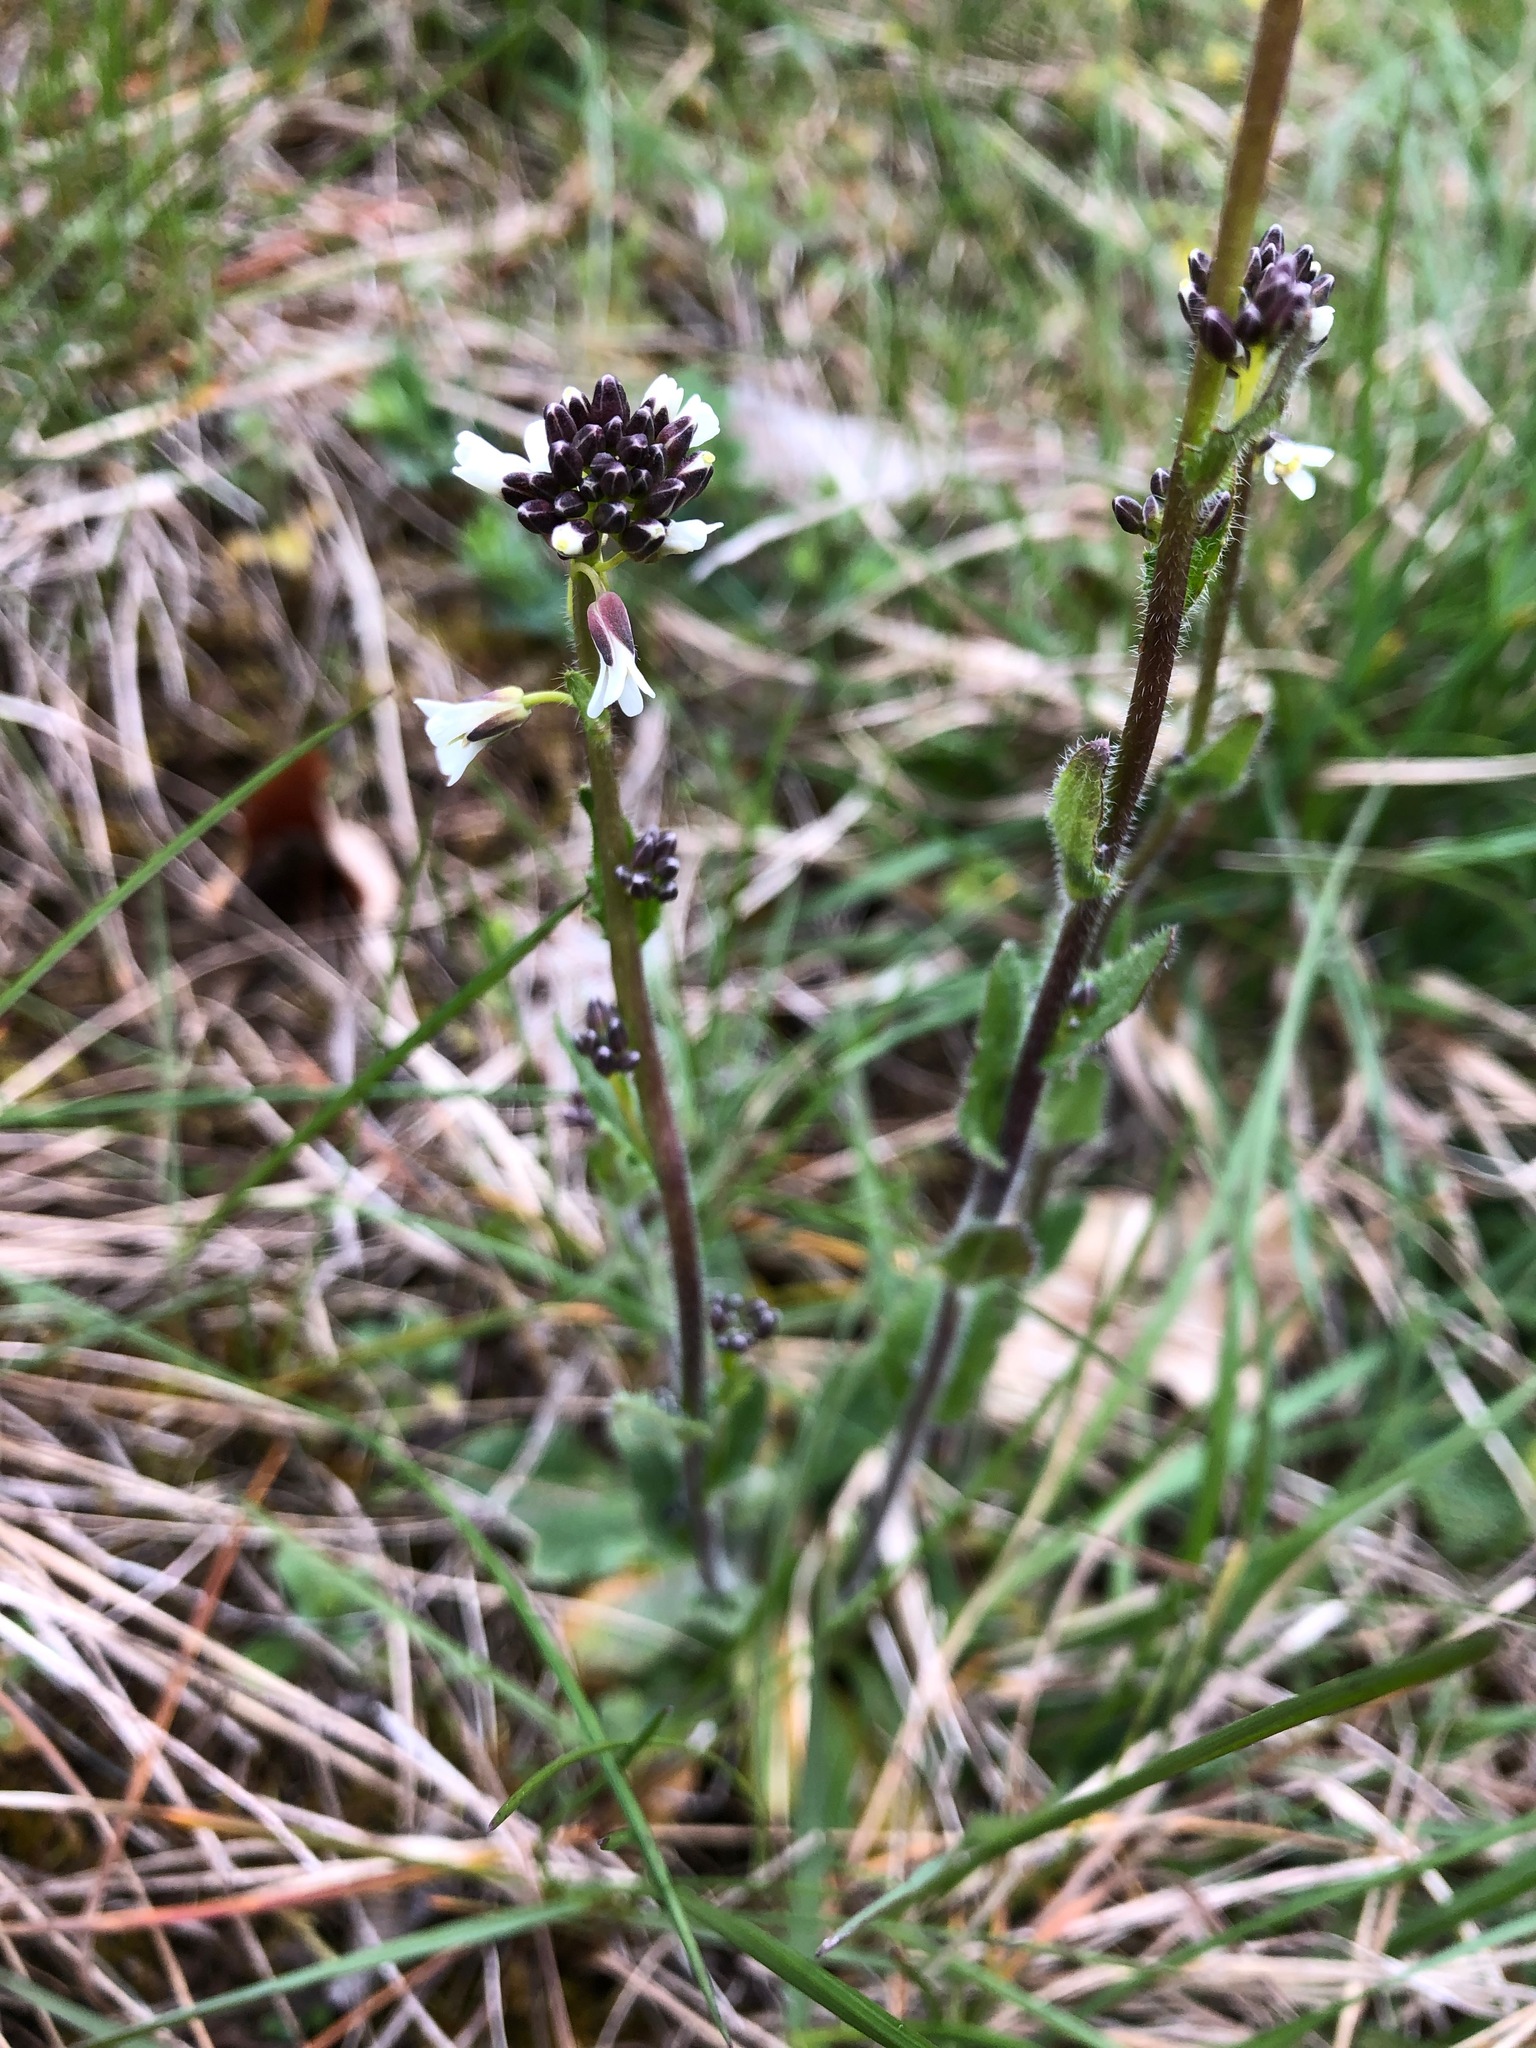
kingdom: Plantae
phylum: Tracheophyta
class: Magnoliopsida
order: Brassicales
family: Brassicaceae
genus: Arabis
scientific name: Arabis hirsuta
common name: Hairy rock-cress
